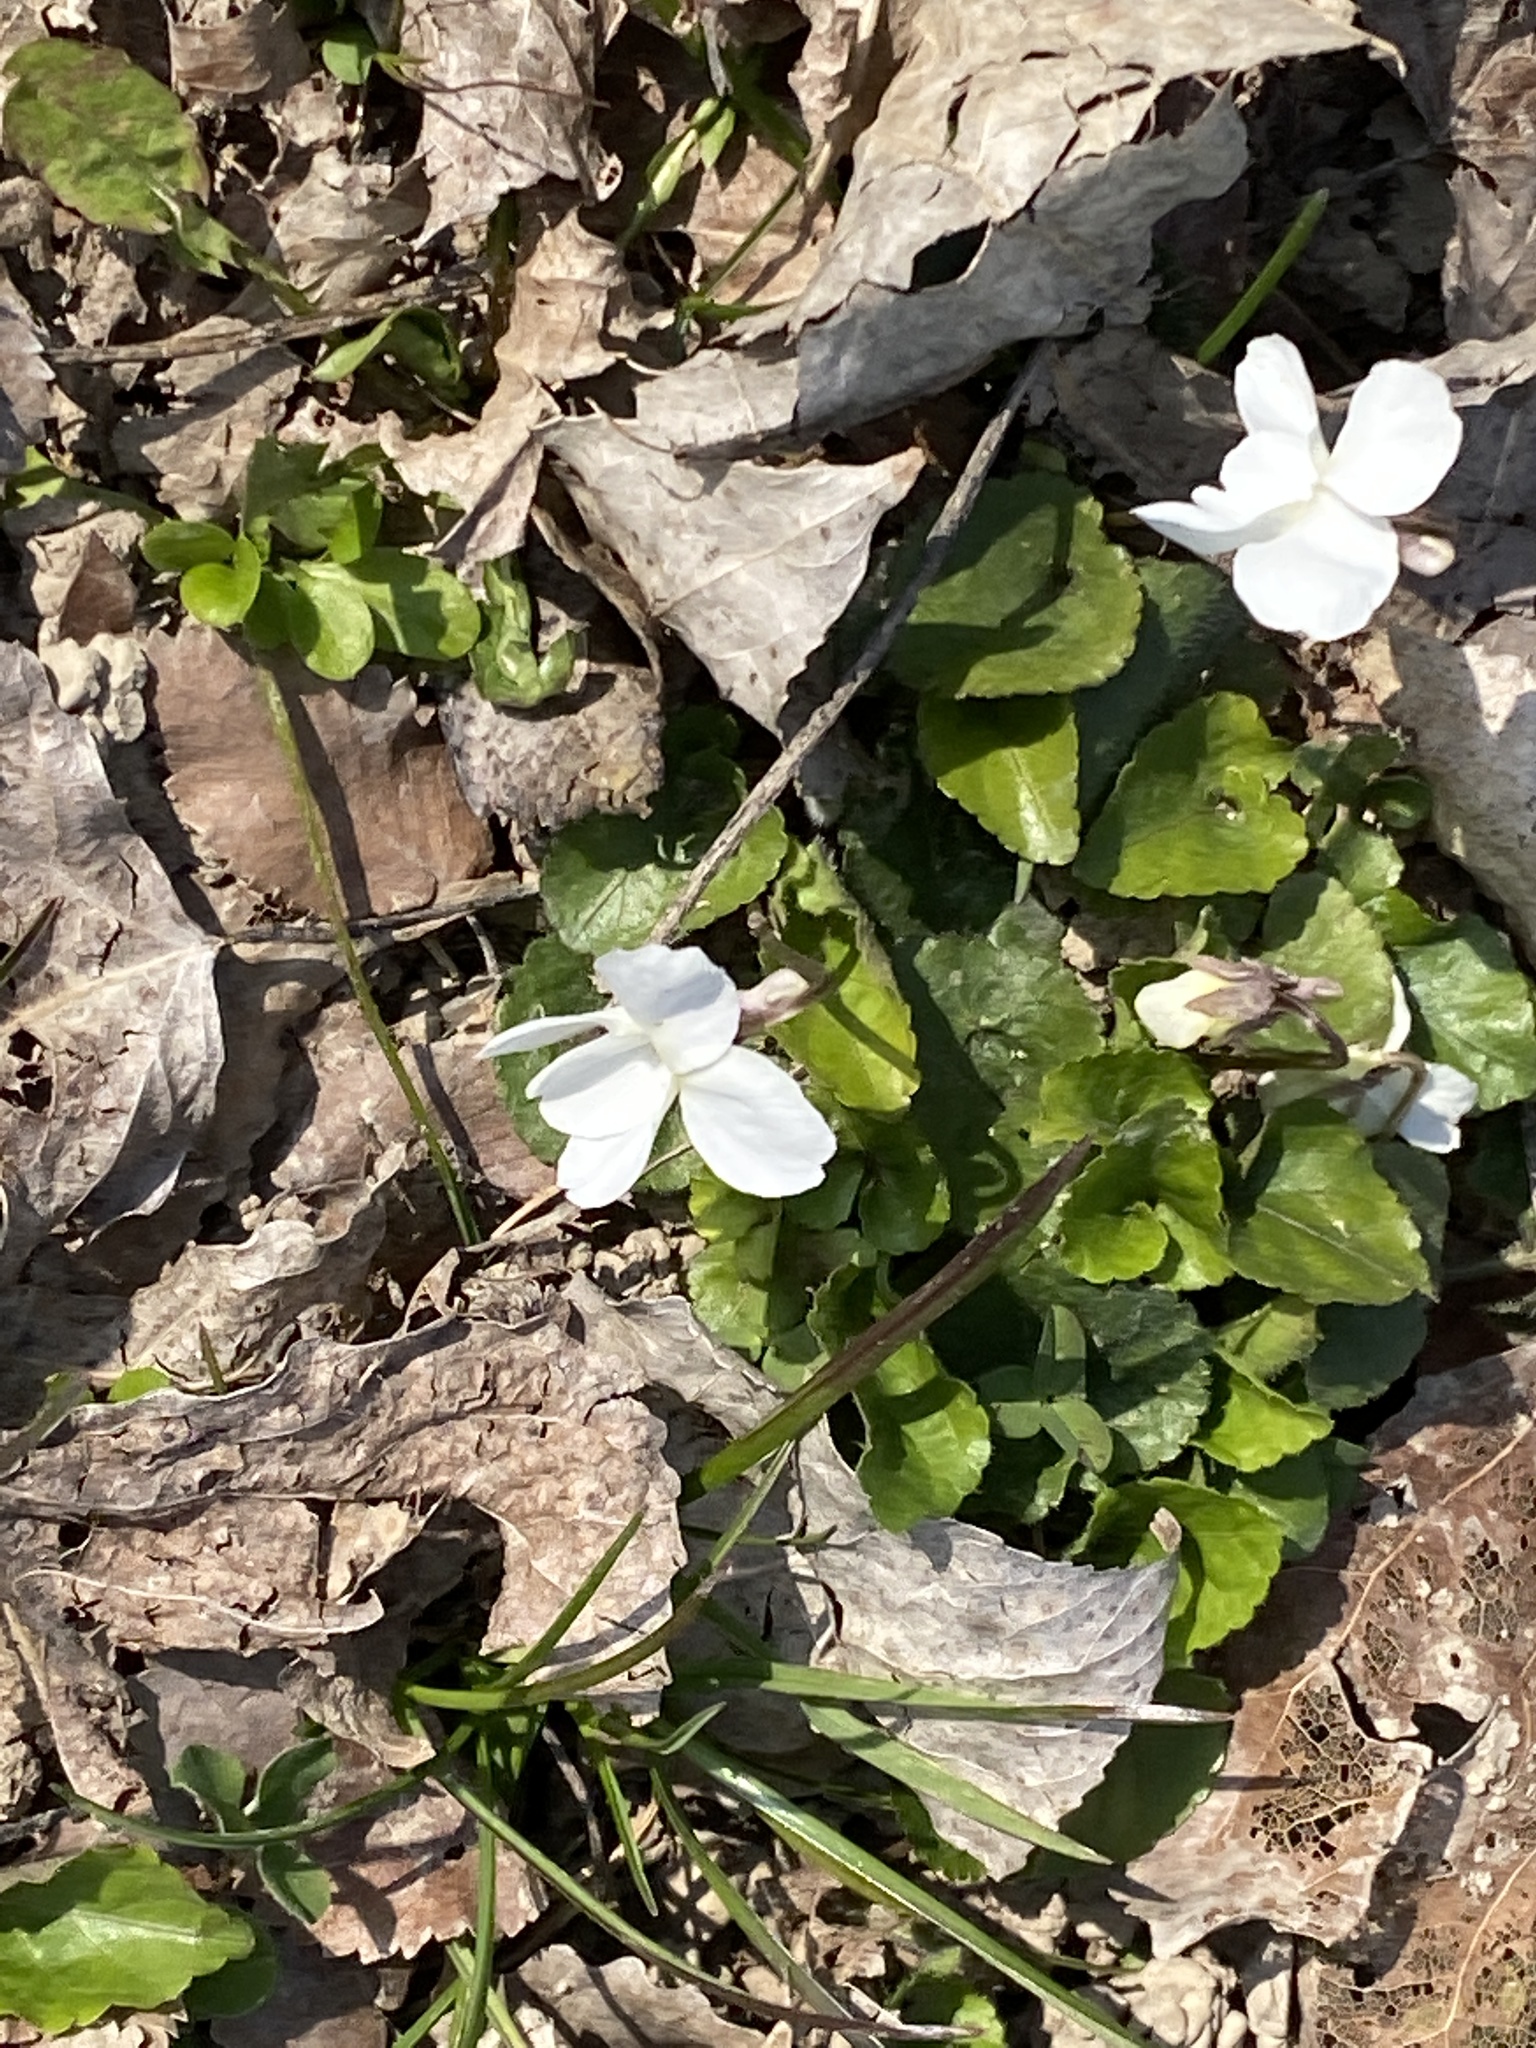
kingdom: Plantae
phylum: Tracheophyta
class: Magnoliopsida
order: Malpighiales
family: Violaceae
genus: Viola
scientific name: Viola alba
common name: White violet
